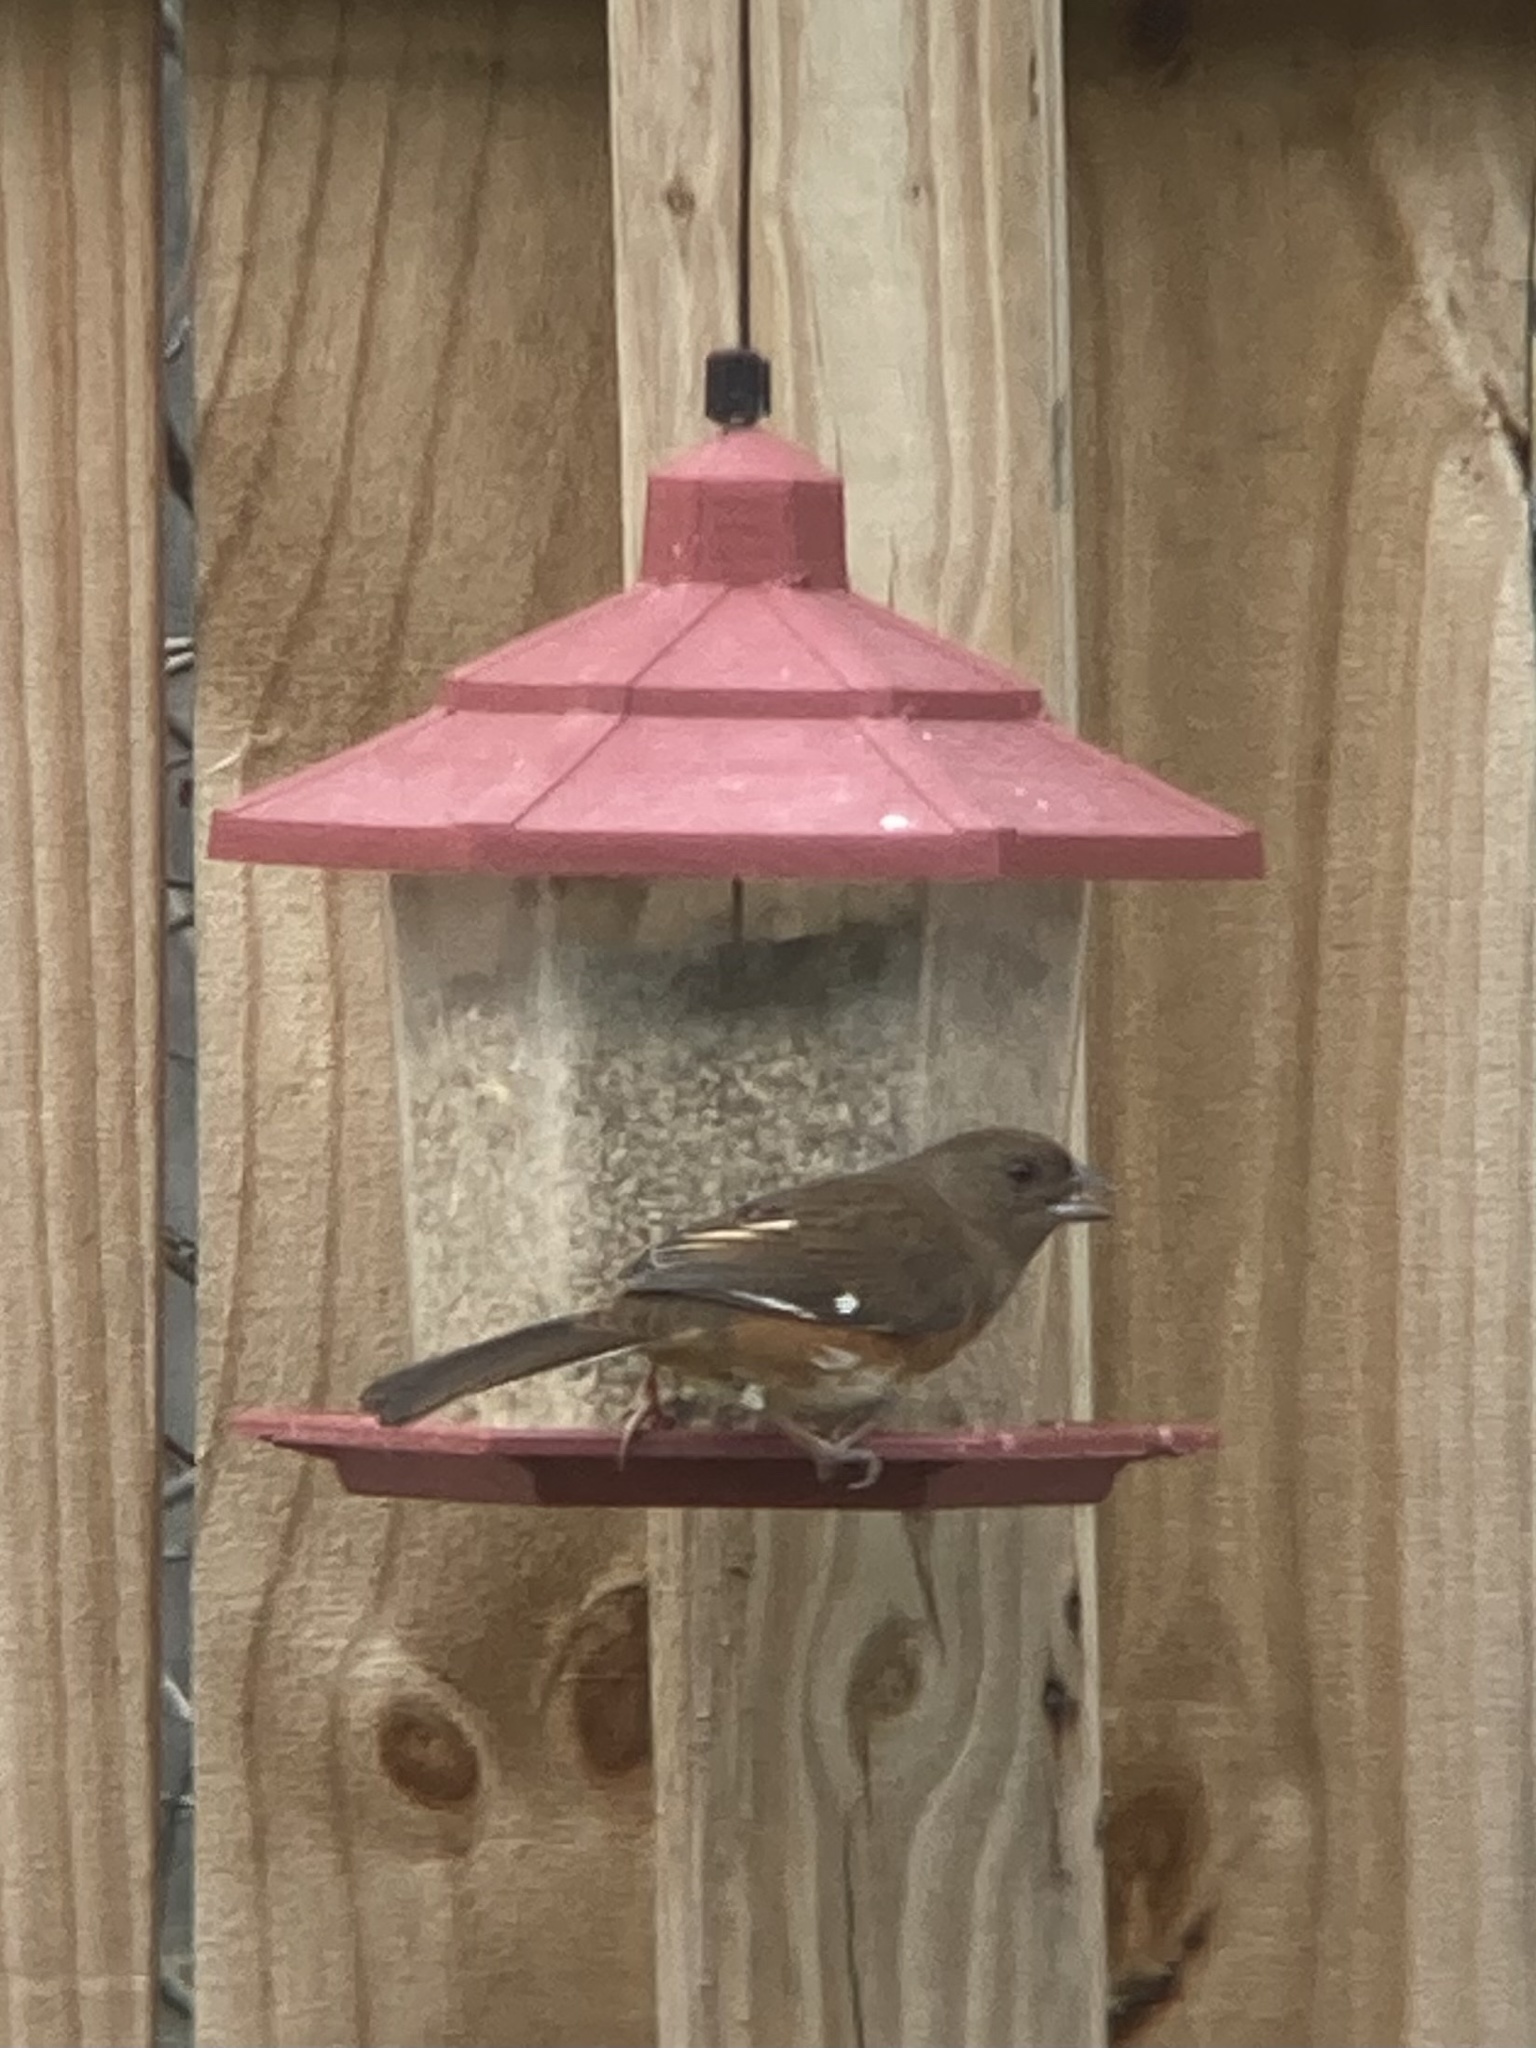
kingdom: Animalia
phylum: Chordata
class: Aves
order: Passeriformes
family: Passerellidae
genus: Pipilo
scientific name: Pipilo erythrophthalmus
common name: Eastern towhee
